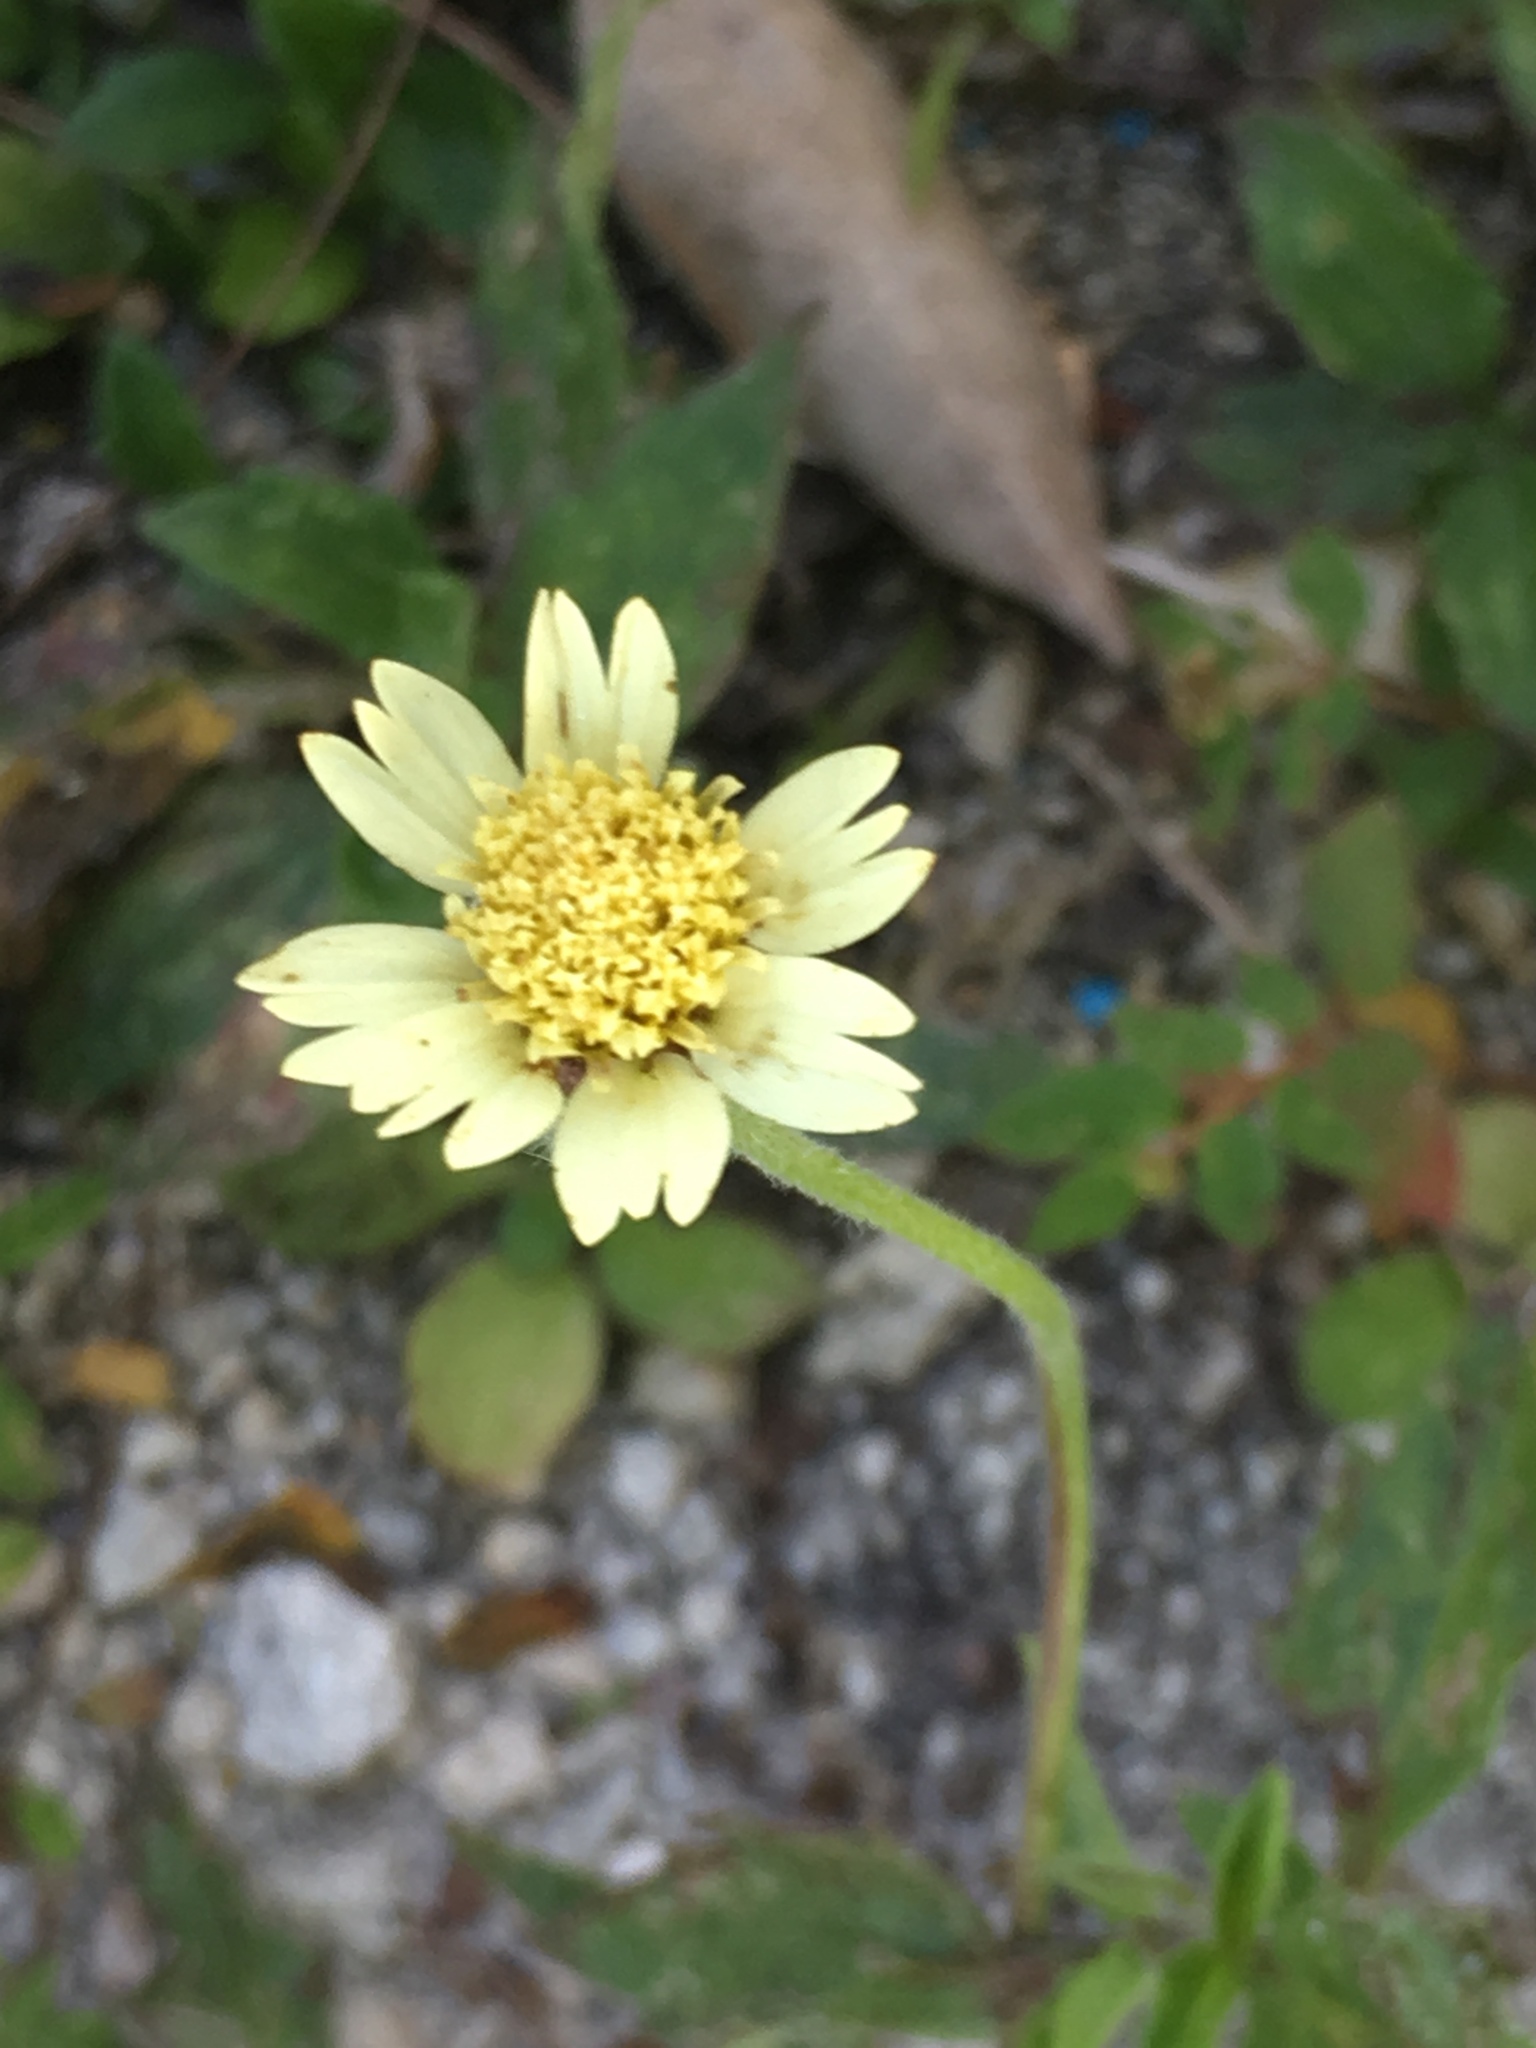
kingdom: Plantae
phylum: Tracheophyta
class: Magnoliopsida
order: Asterales
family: Asteraceae
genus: Tridax
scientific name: Tridax procumbens
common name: Coatbuttons
